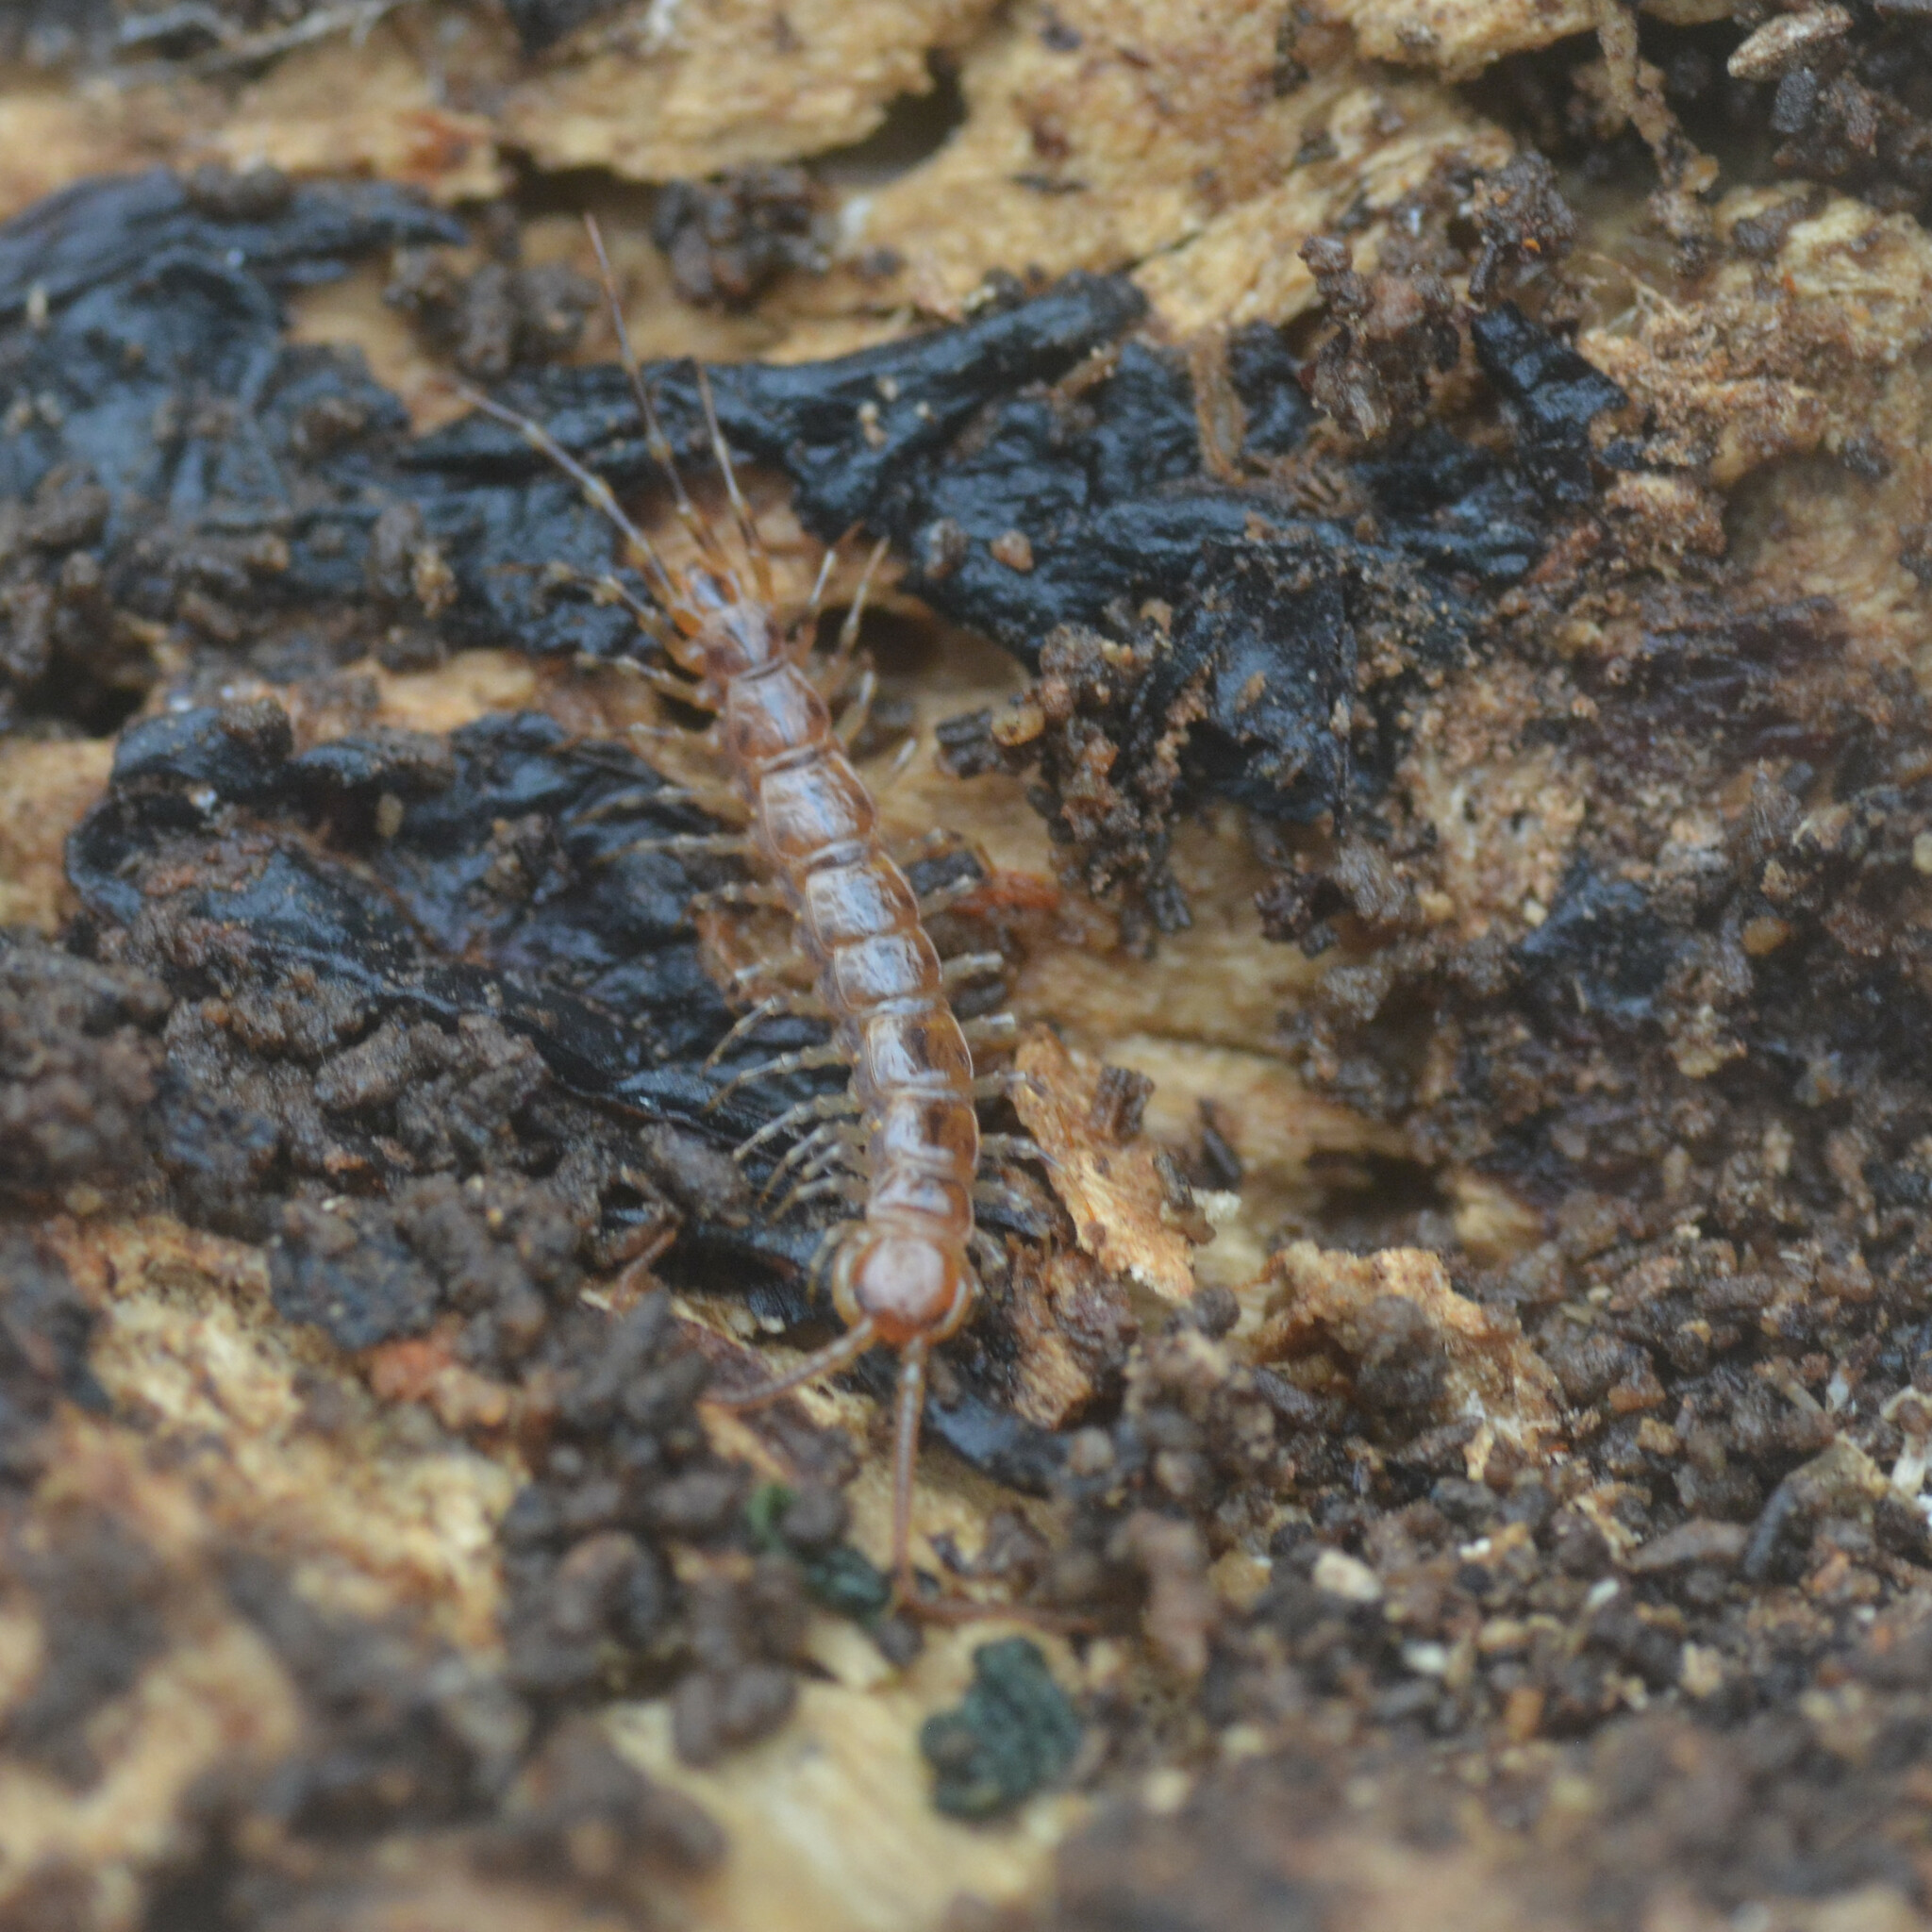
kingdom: Animalia
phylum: Arthropoda
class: Chilopoda
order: Lithobiomorpha
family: Lithobiidae
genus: Lithobius
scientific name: Lithobius variegatus
